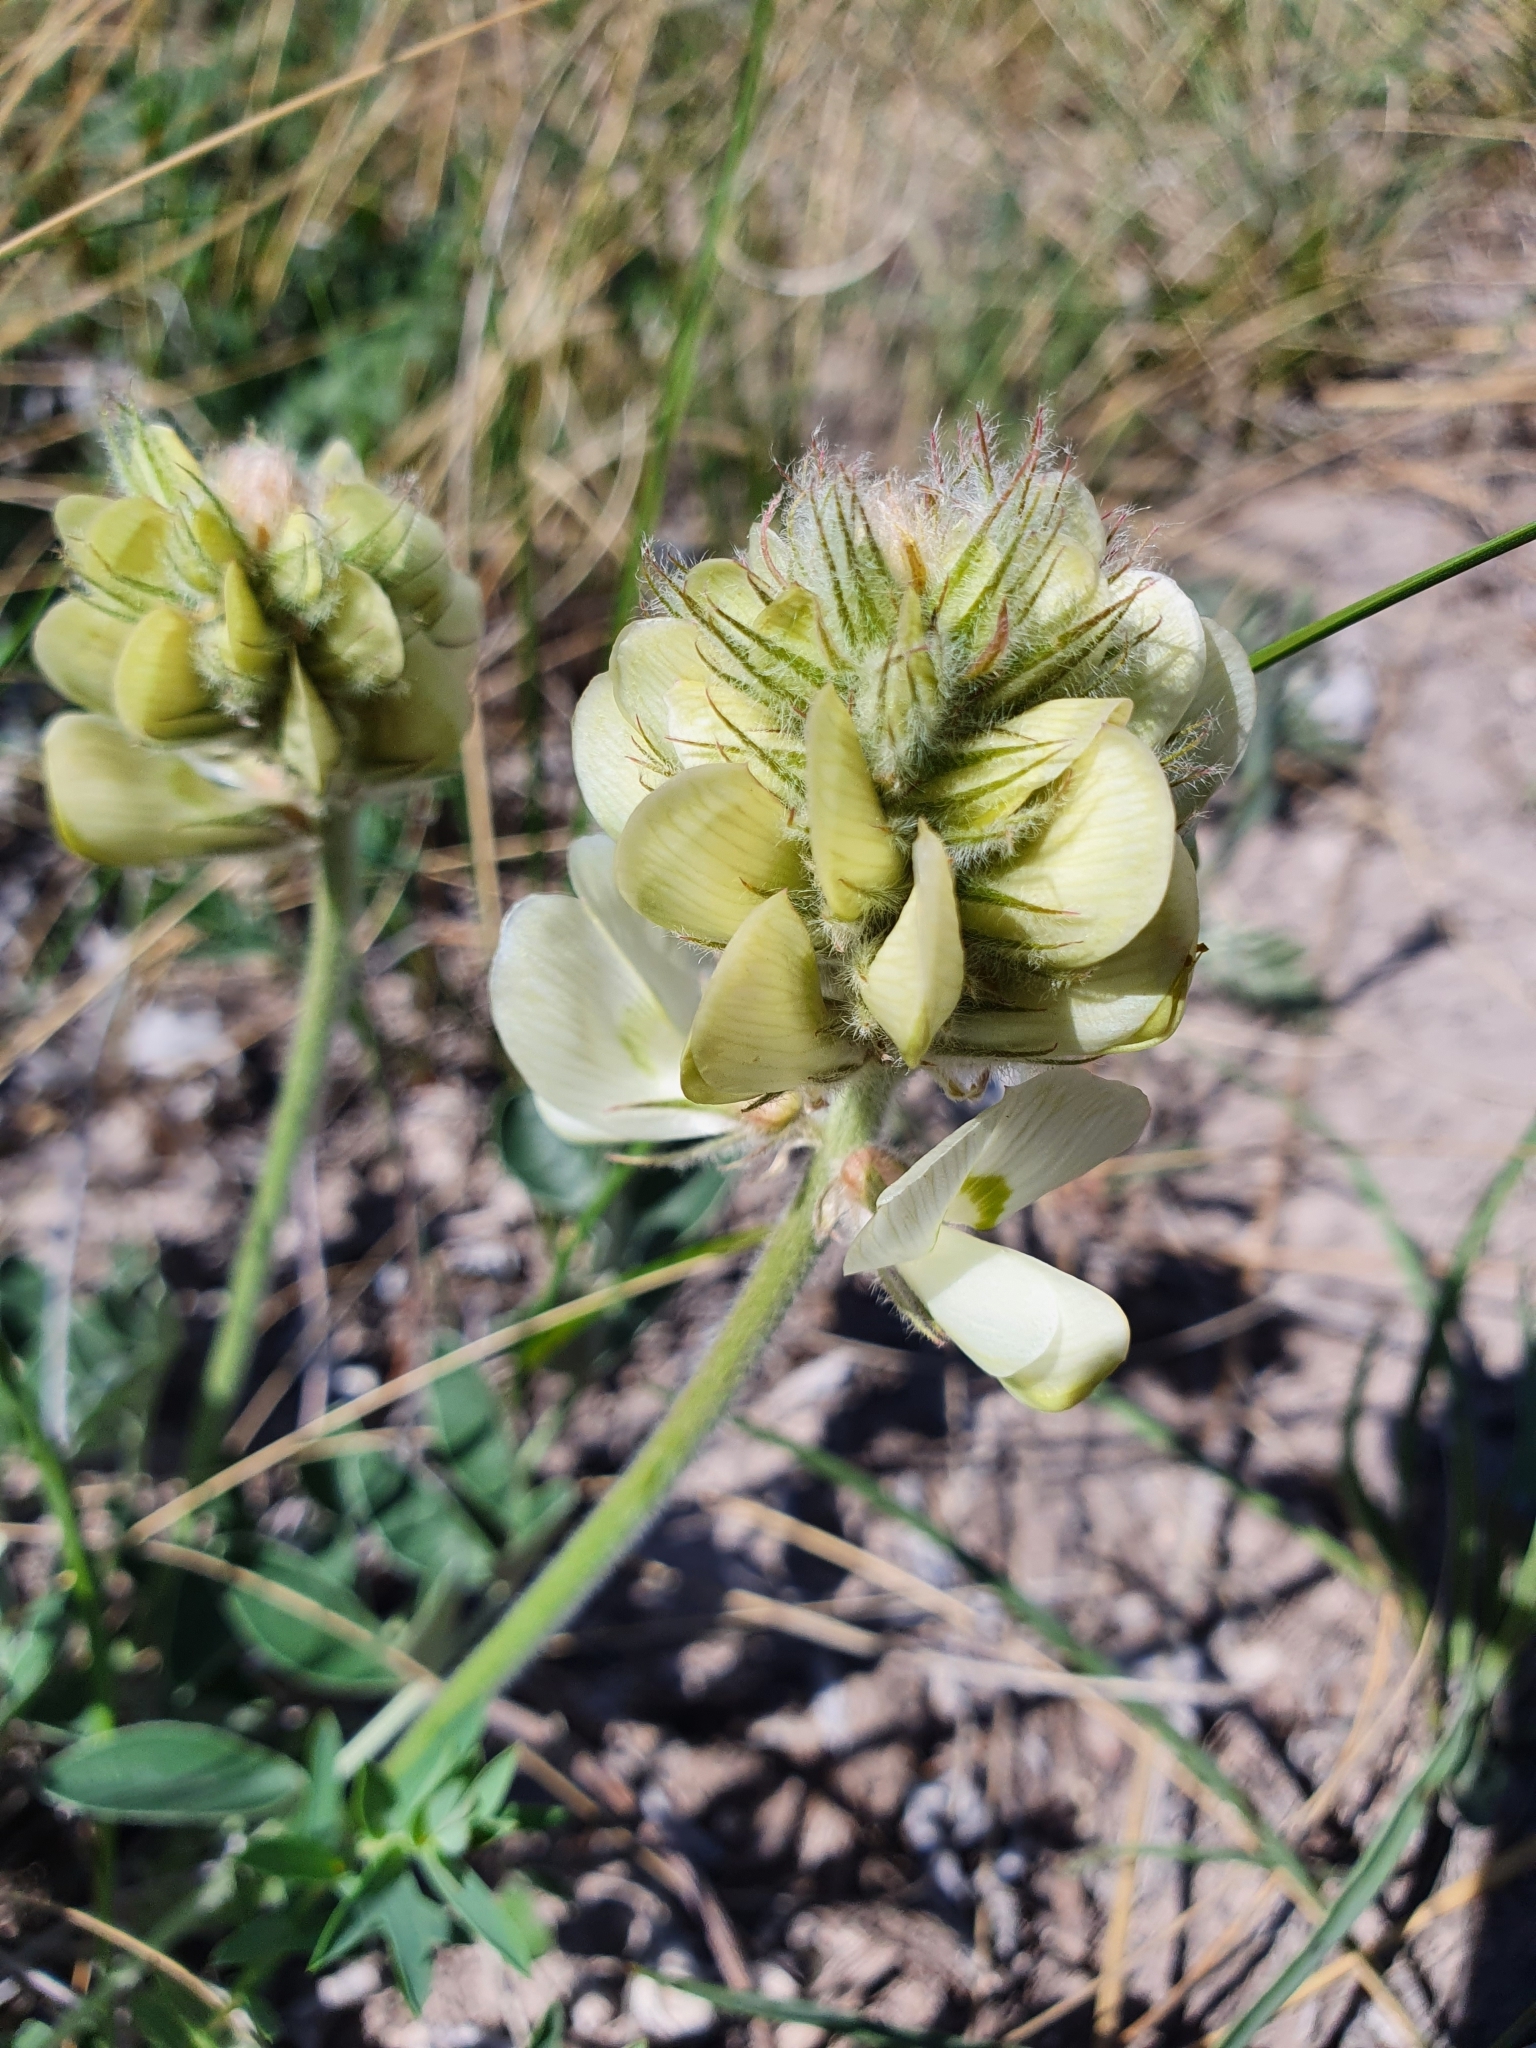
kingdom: Plantae
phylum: Tracheophyta
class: Magnoliopsida
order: Fabales
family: Fabaceae
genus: Hedysarum
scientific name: Hedysarum grandiflorum
